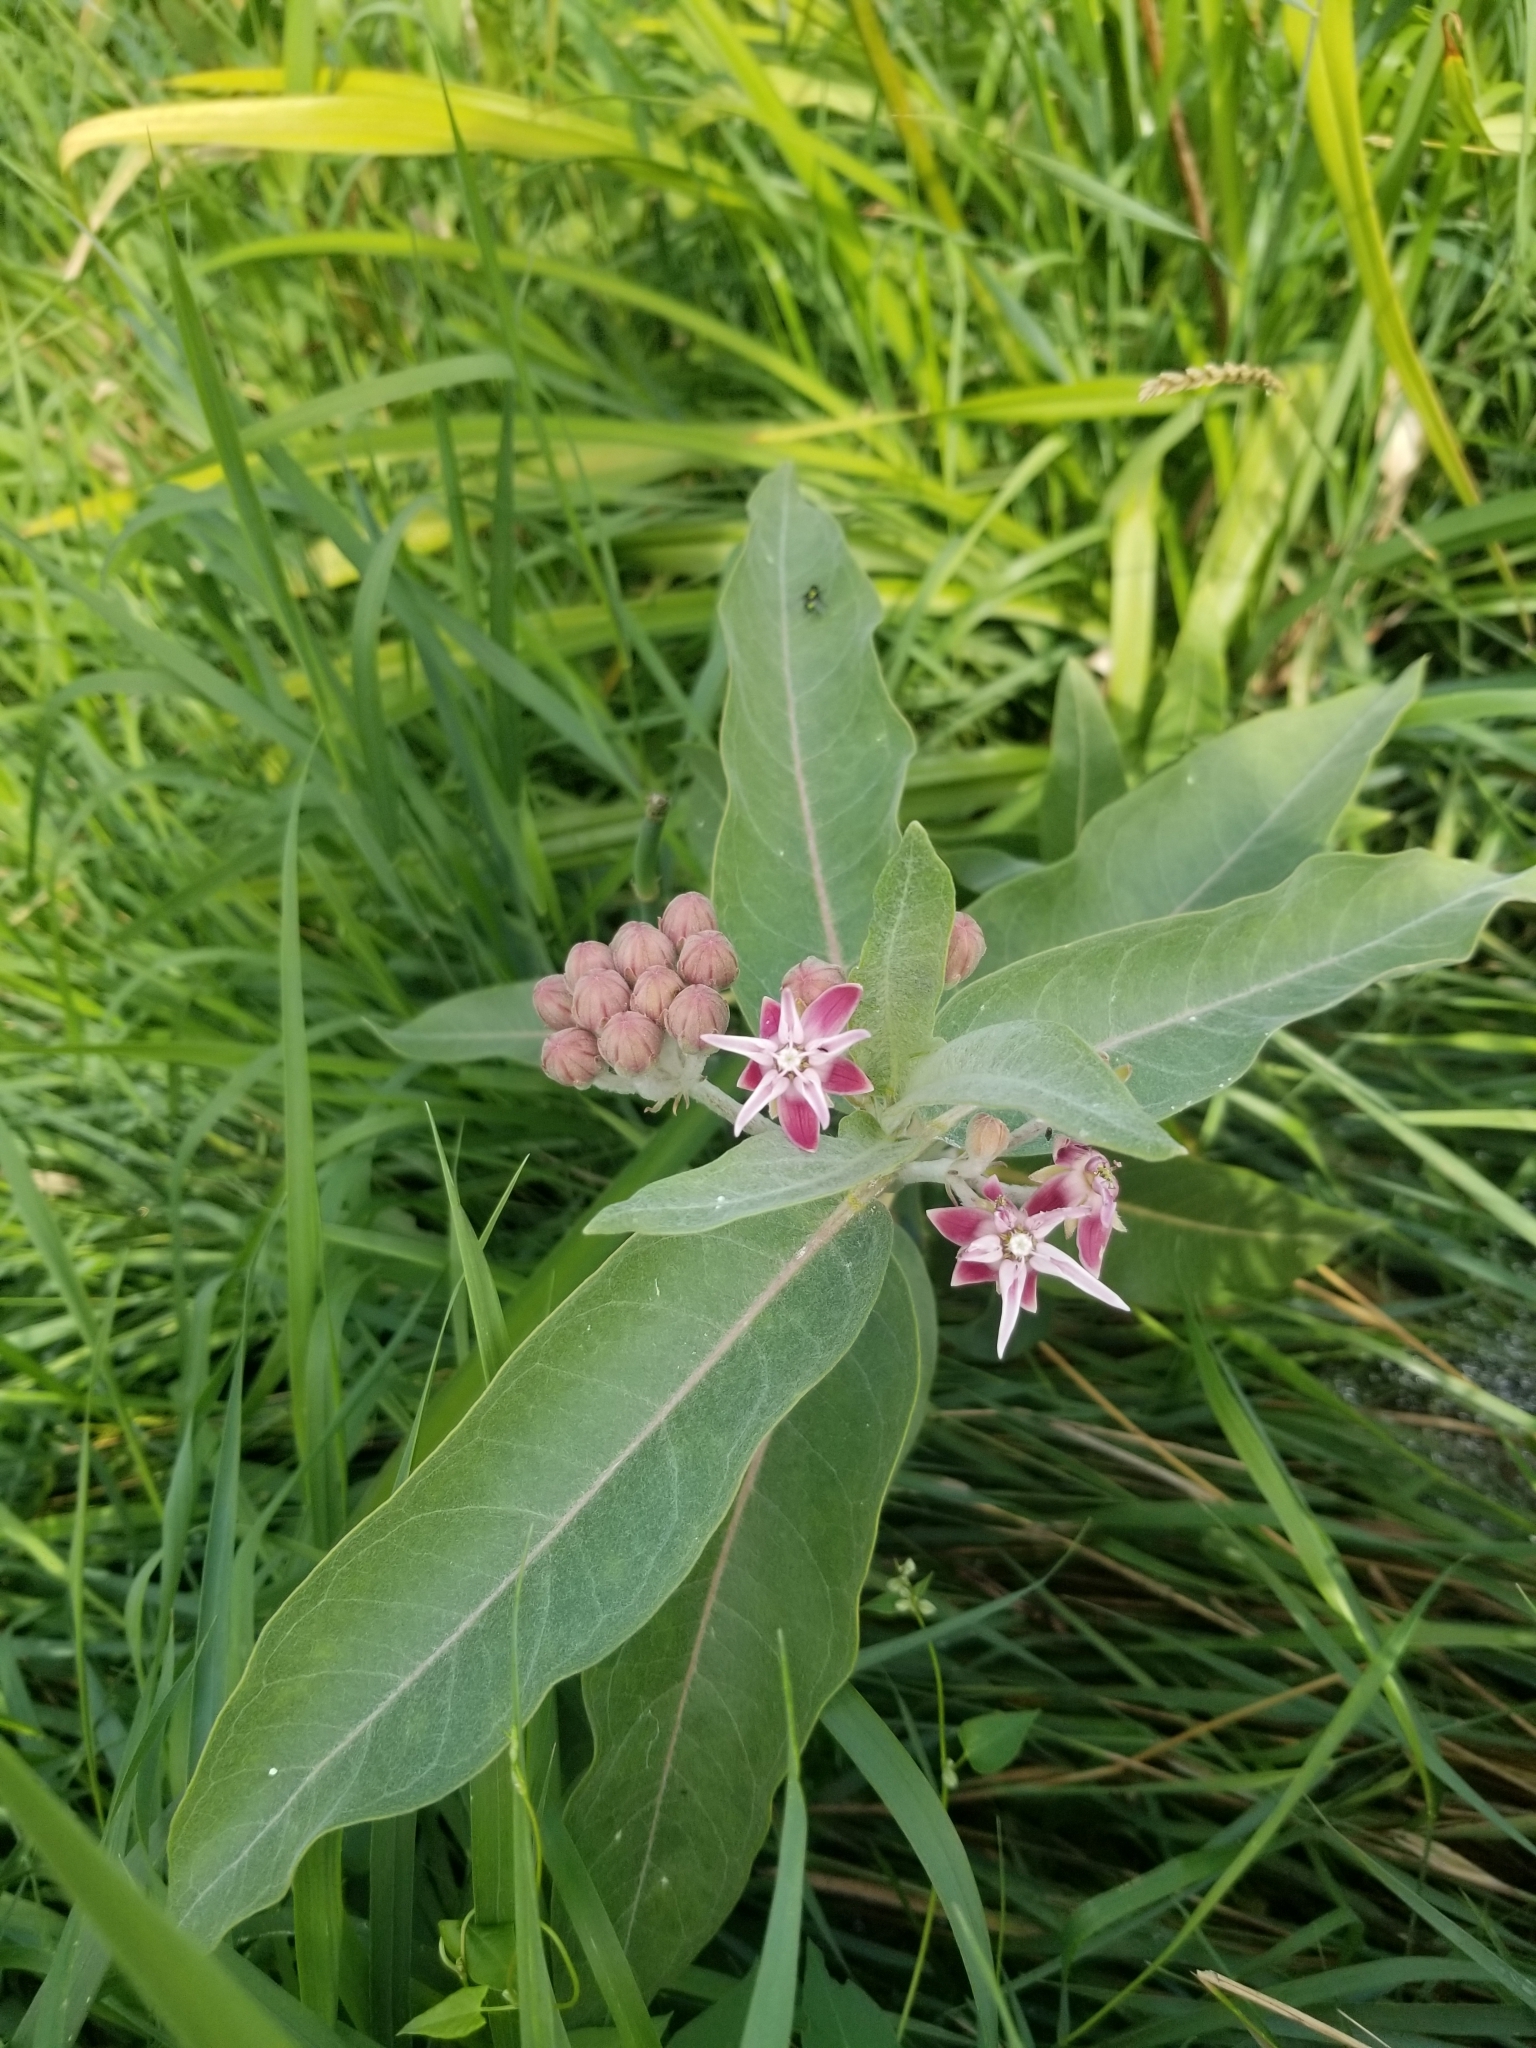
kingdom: Plantae
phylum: Tracheophyta
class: Magnoliopsida
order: Gentianales
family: Apocynaceae
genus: Asclepias
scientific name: Asclepias speciosa
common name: Showy milkweed
